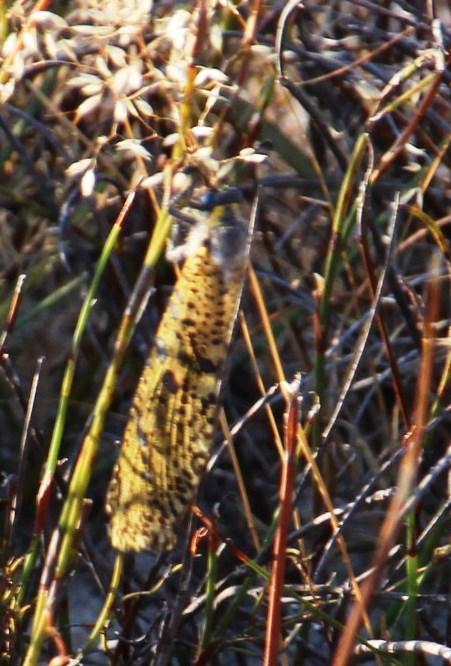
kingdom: Animalia
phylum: Arthropoda
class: Insecta
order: Neuroptera
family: Myrmeleontidae
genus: Palpares
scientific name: Palpares speciosus
